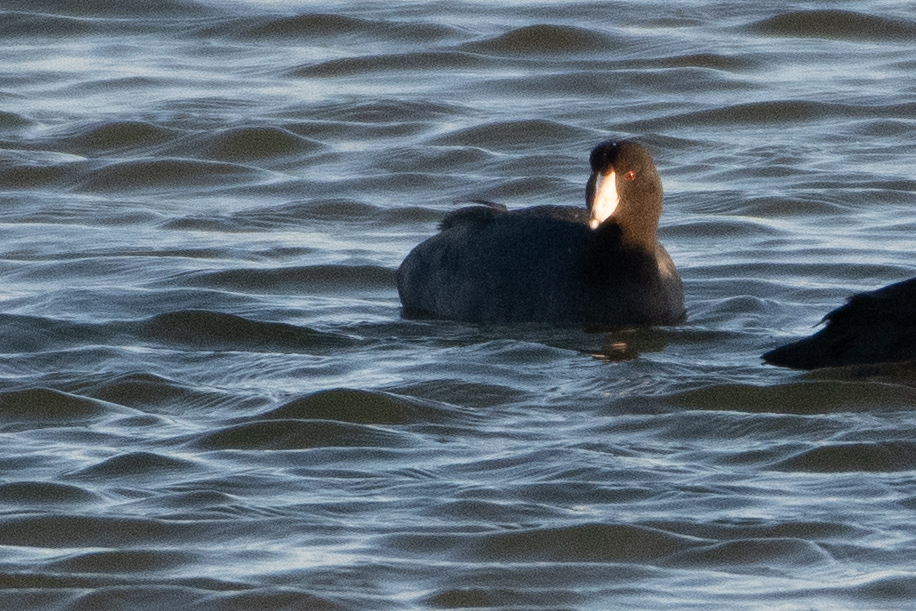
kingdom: Animalia
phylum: Chordata
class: Aves
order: Gruiformes
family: Rallidae
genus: Fulica
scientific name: Fulica americana
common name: American coot
